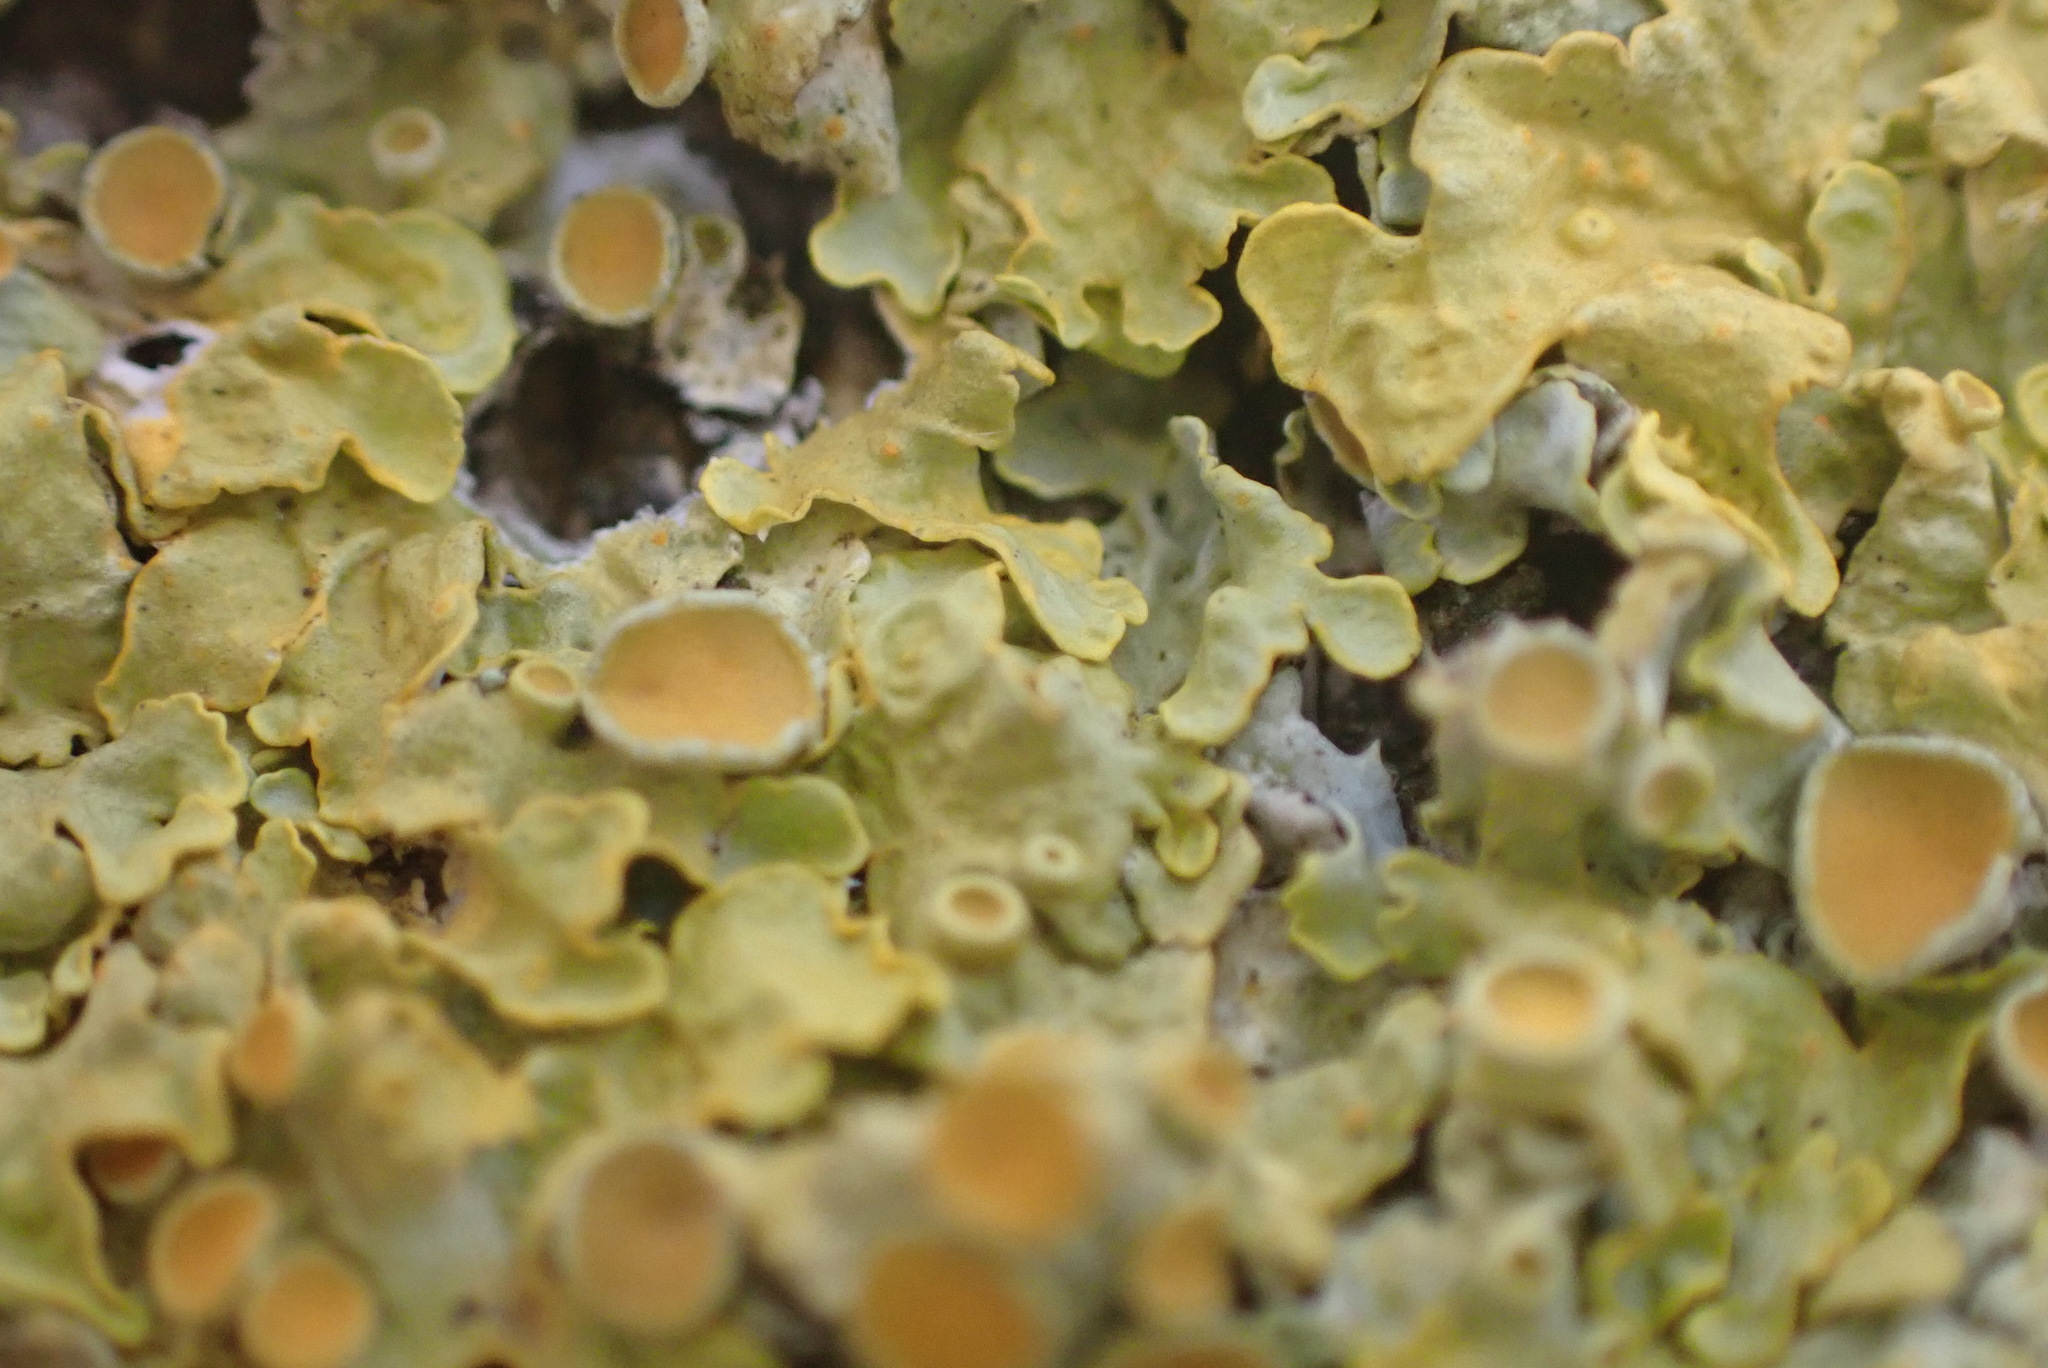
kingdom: Fungi
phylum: Ascomycota
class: Lecanoromycetes
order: Teloschistales
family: Teloschistaceae
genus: Xanthoria
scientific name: Xanthoria parietina
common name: Common orange lichen
